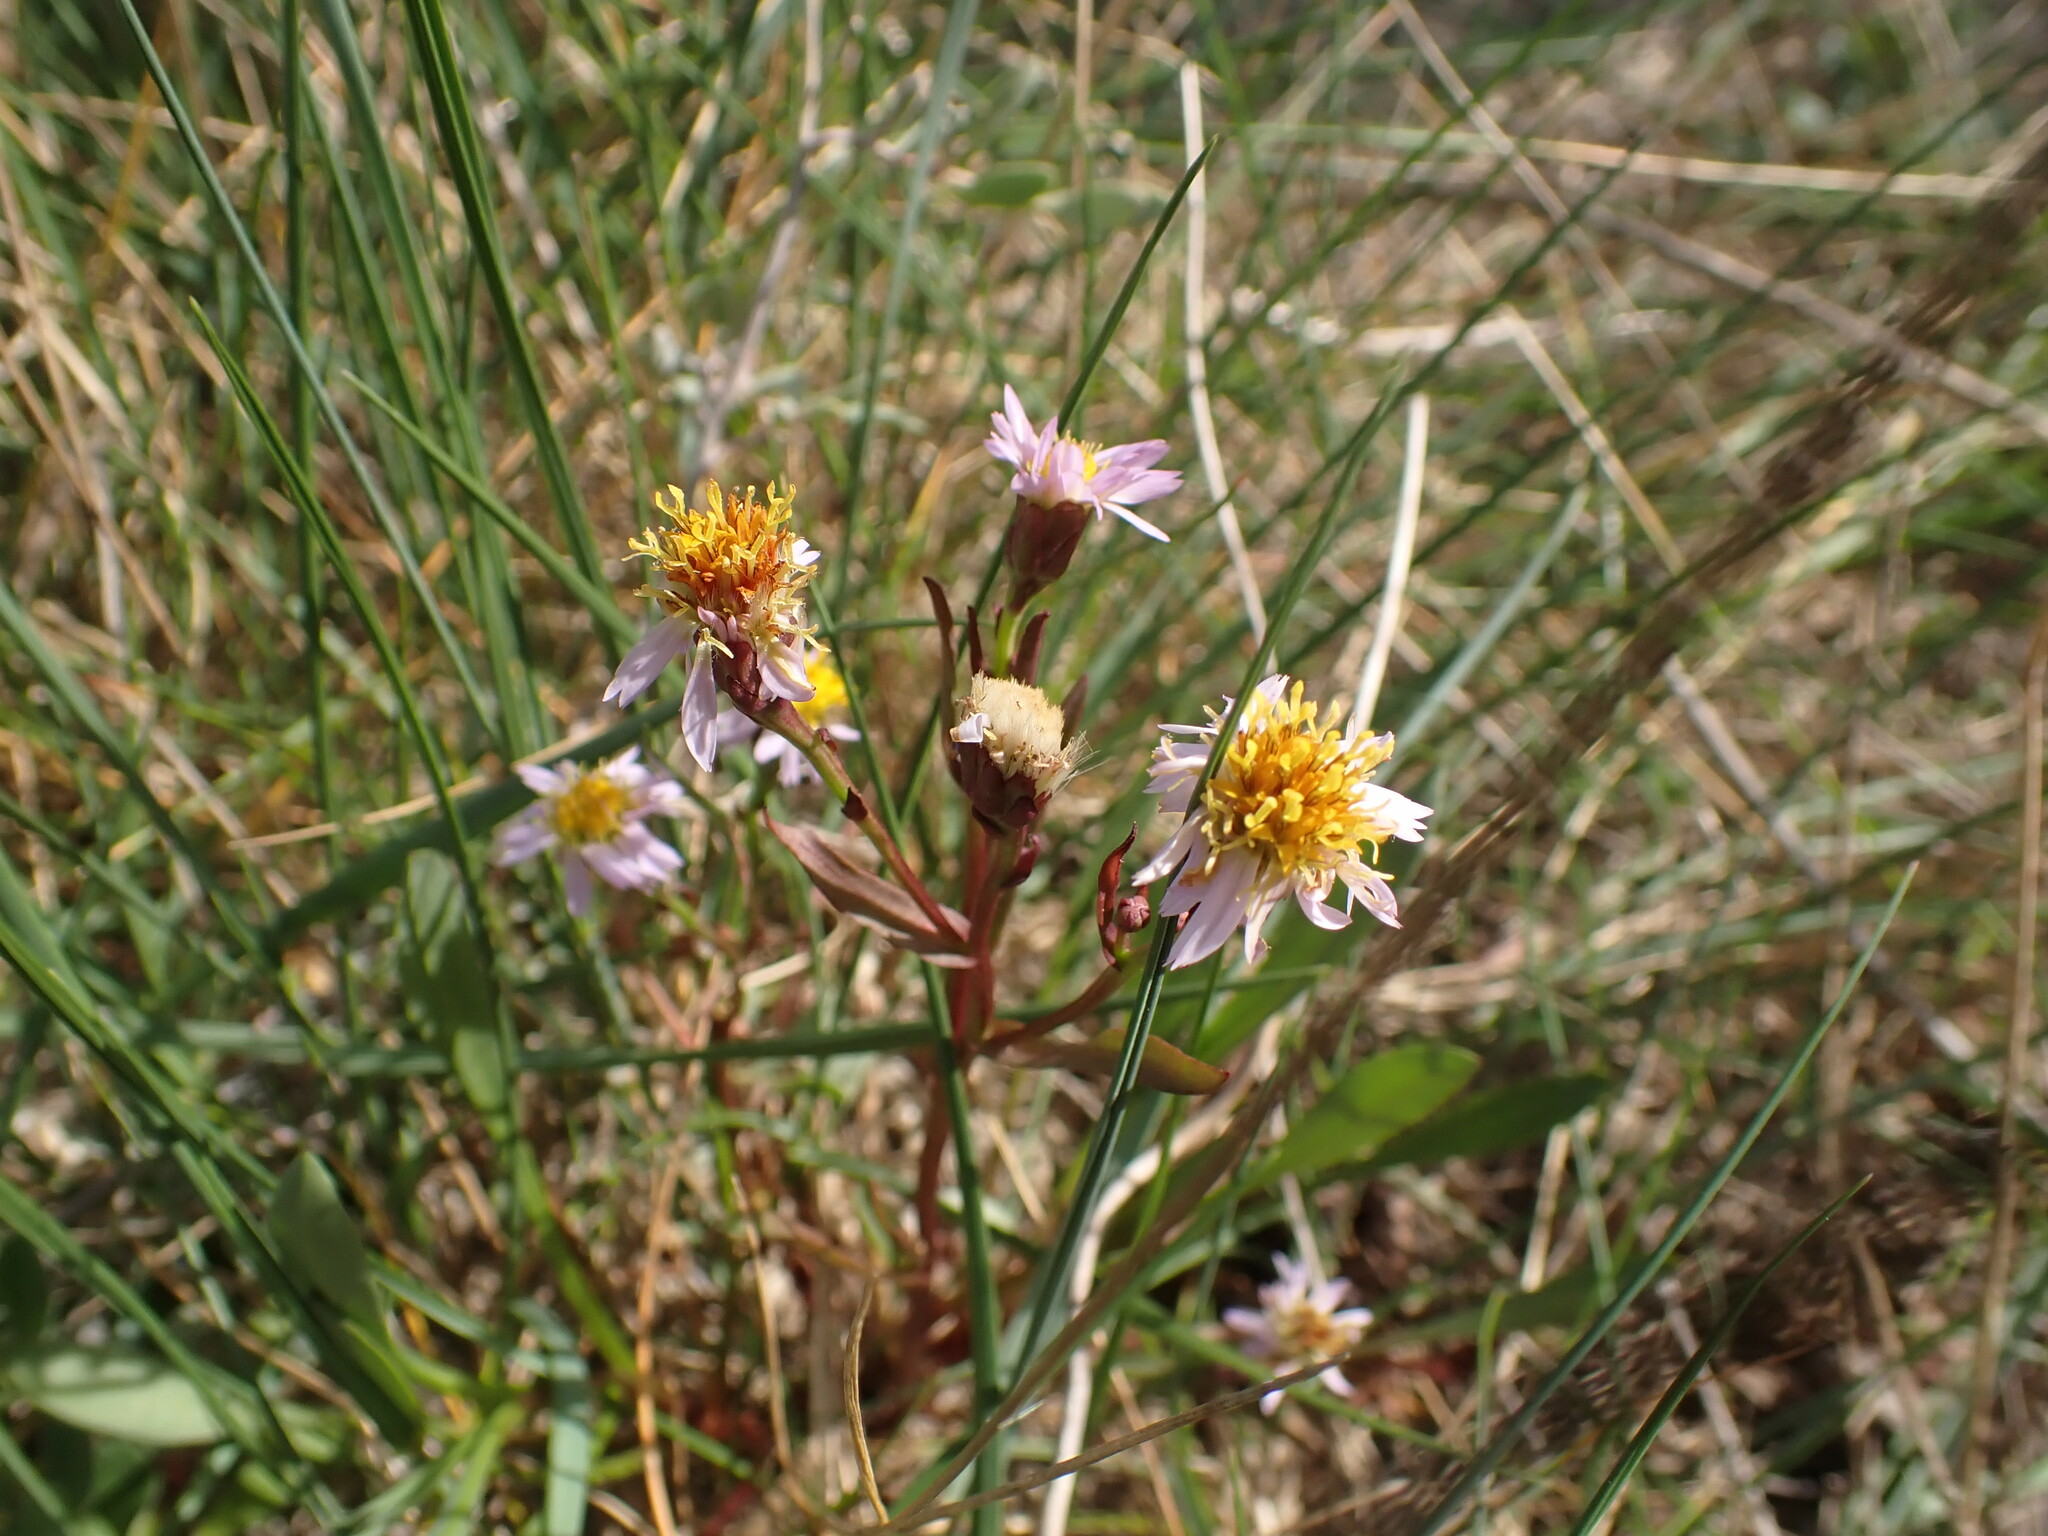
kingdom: Plantae
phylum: Tracheophyta
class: Magnoliopsida
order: Asterales
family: Asteraceae
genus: Tripolium
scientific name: Tripolium pannonicum
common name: Sea aster
